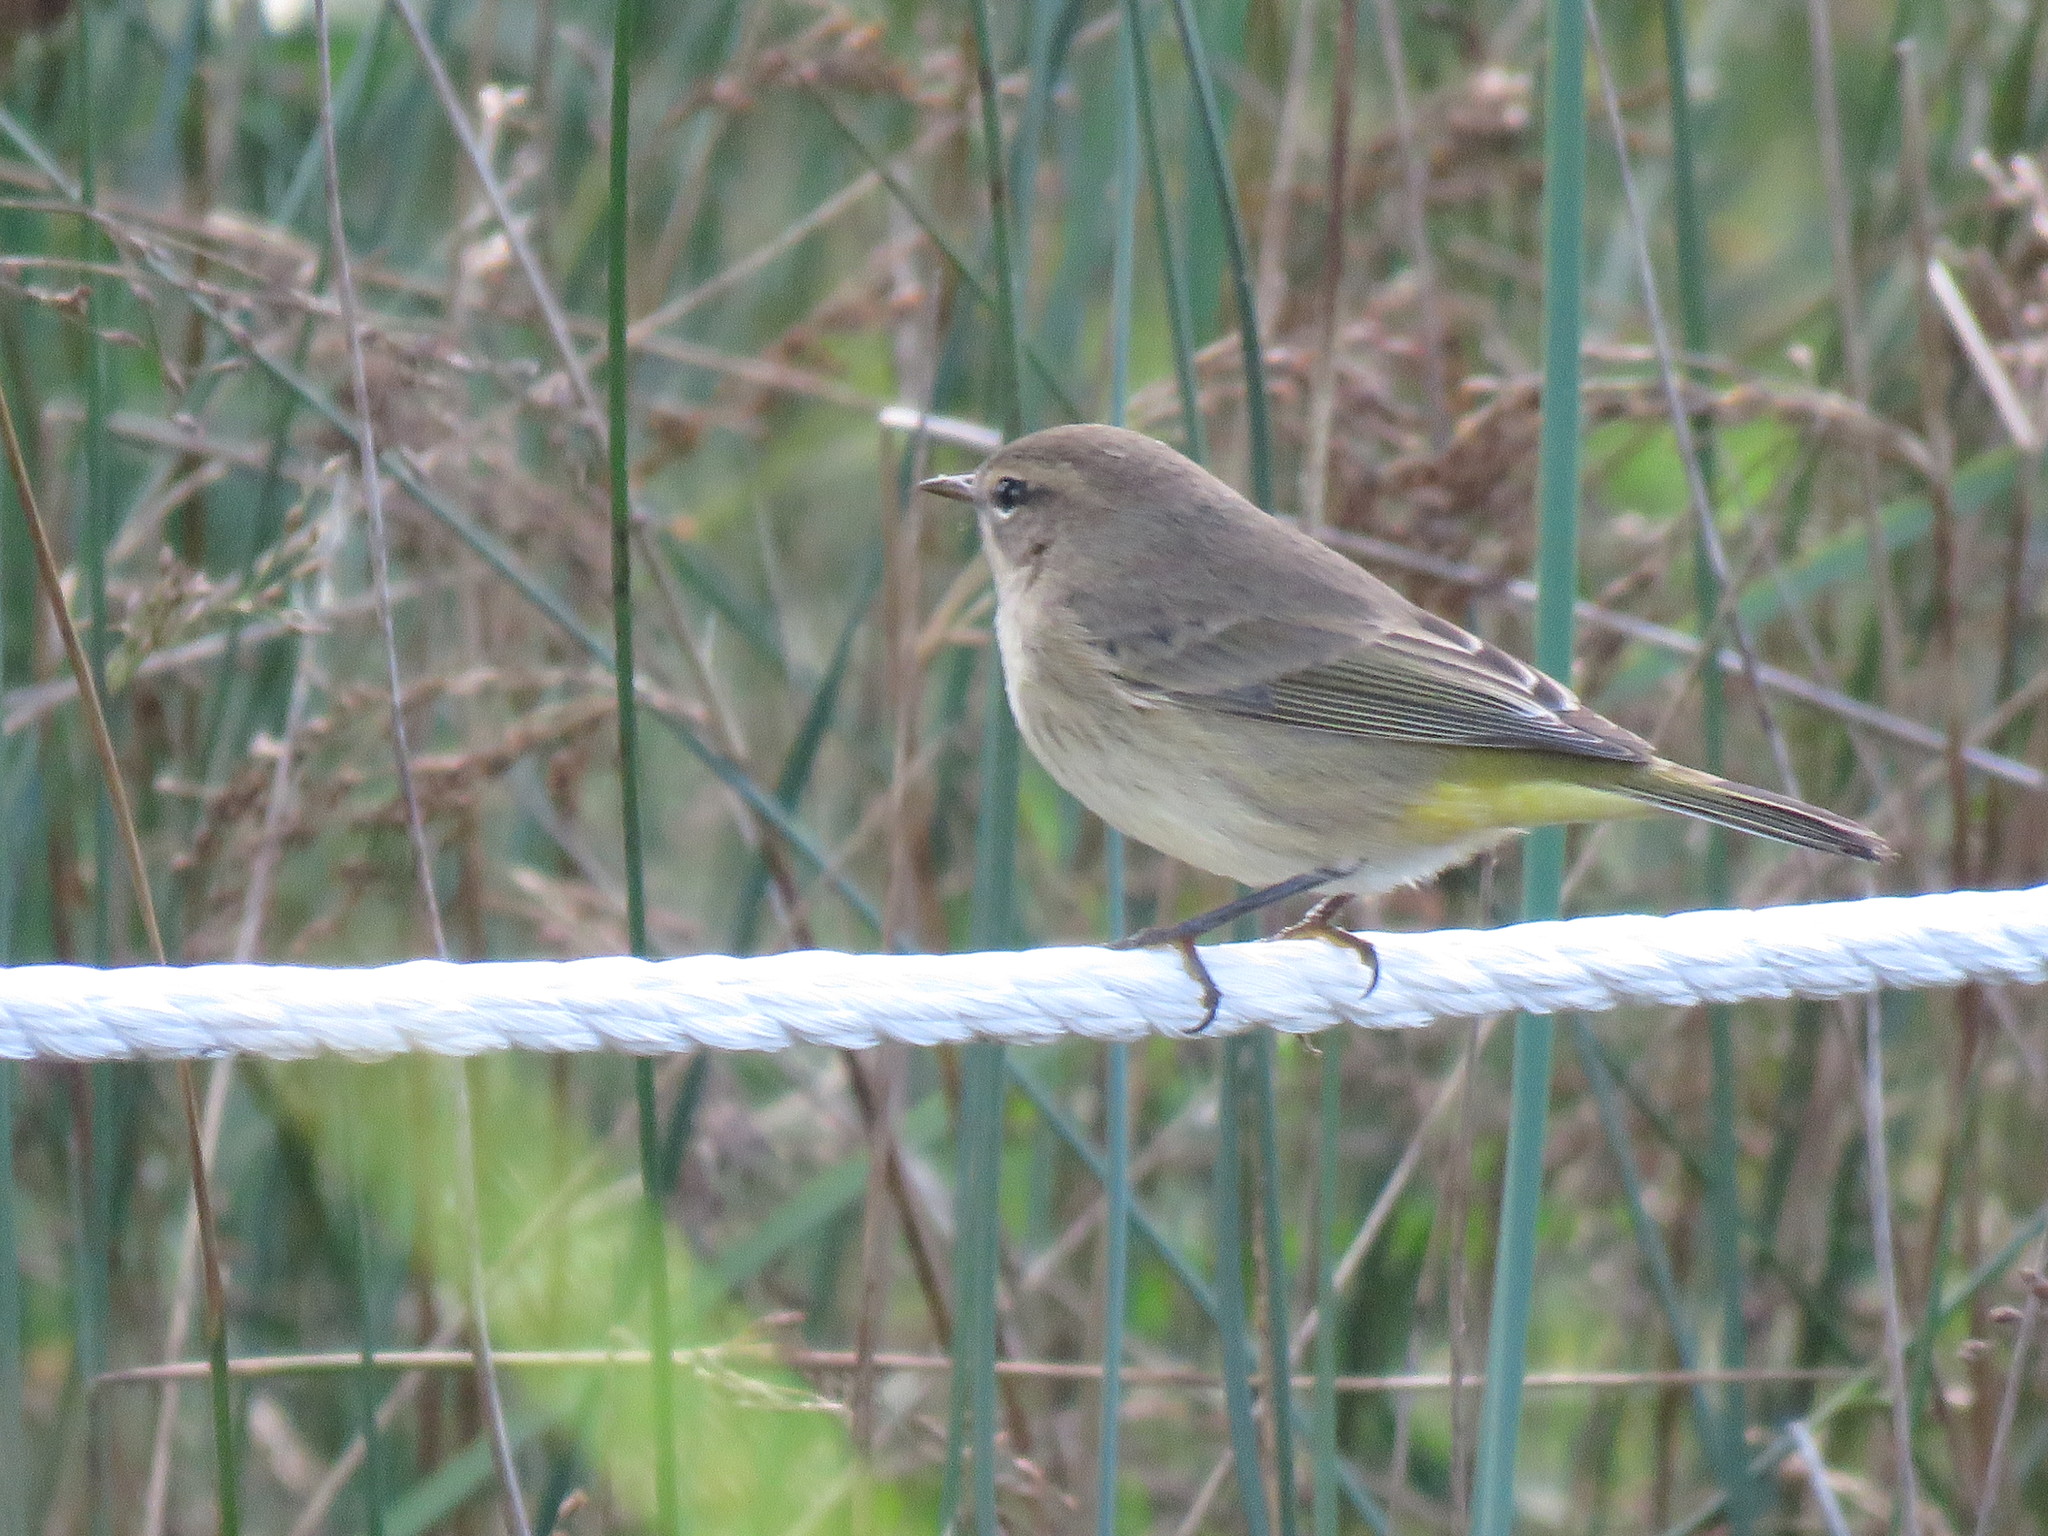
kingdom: Animalia
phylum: Chordata
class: Aves
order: Passeriformes
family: Parulidae
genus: Setophaga
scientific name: Setophaga palmarum
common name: Palm warbler
